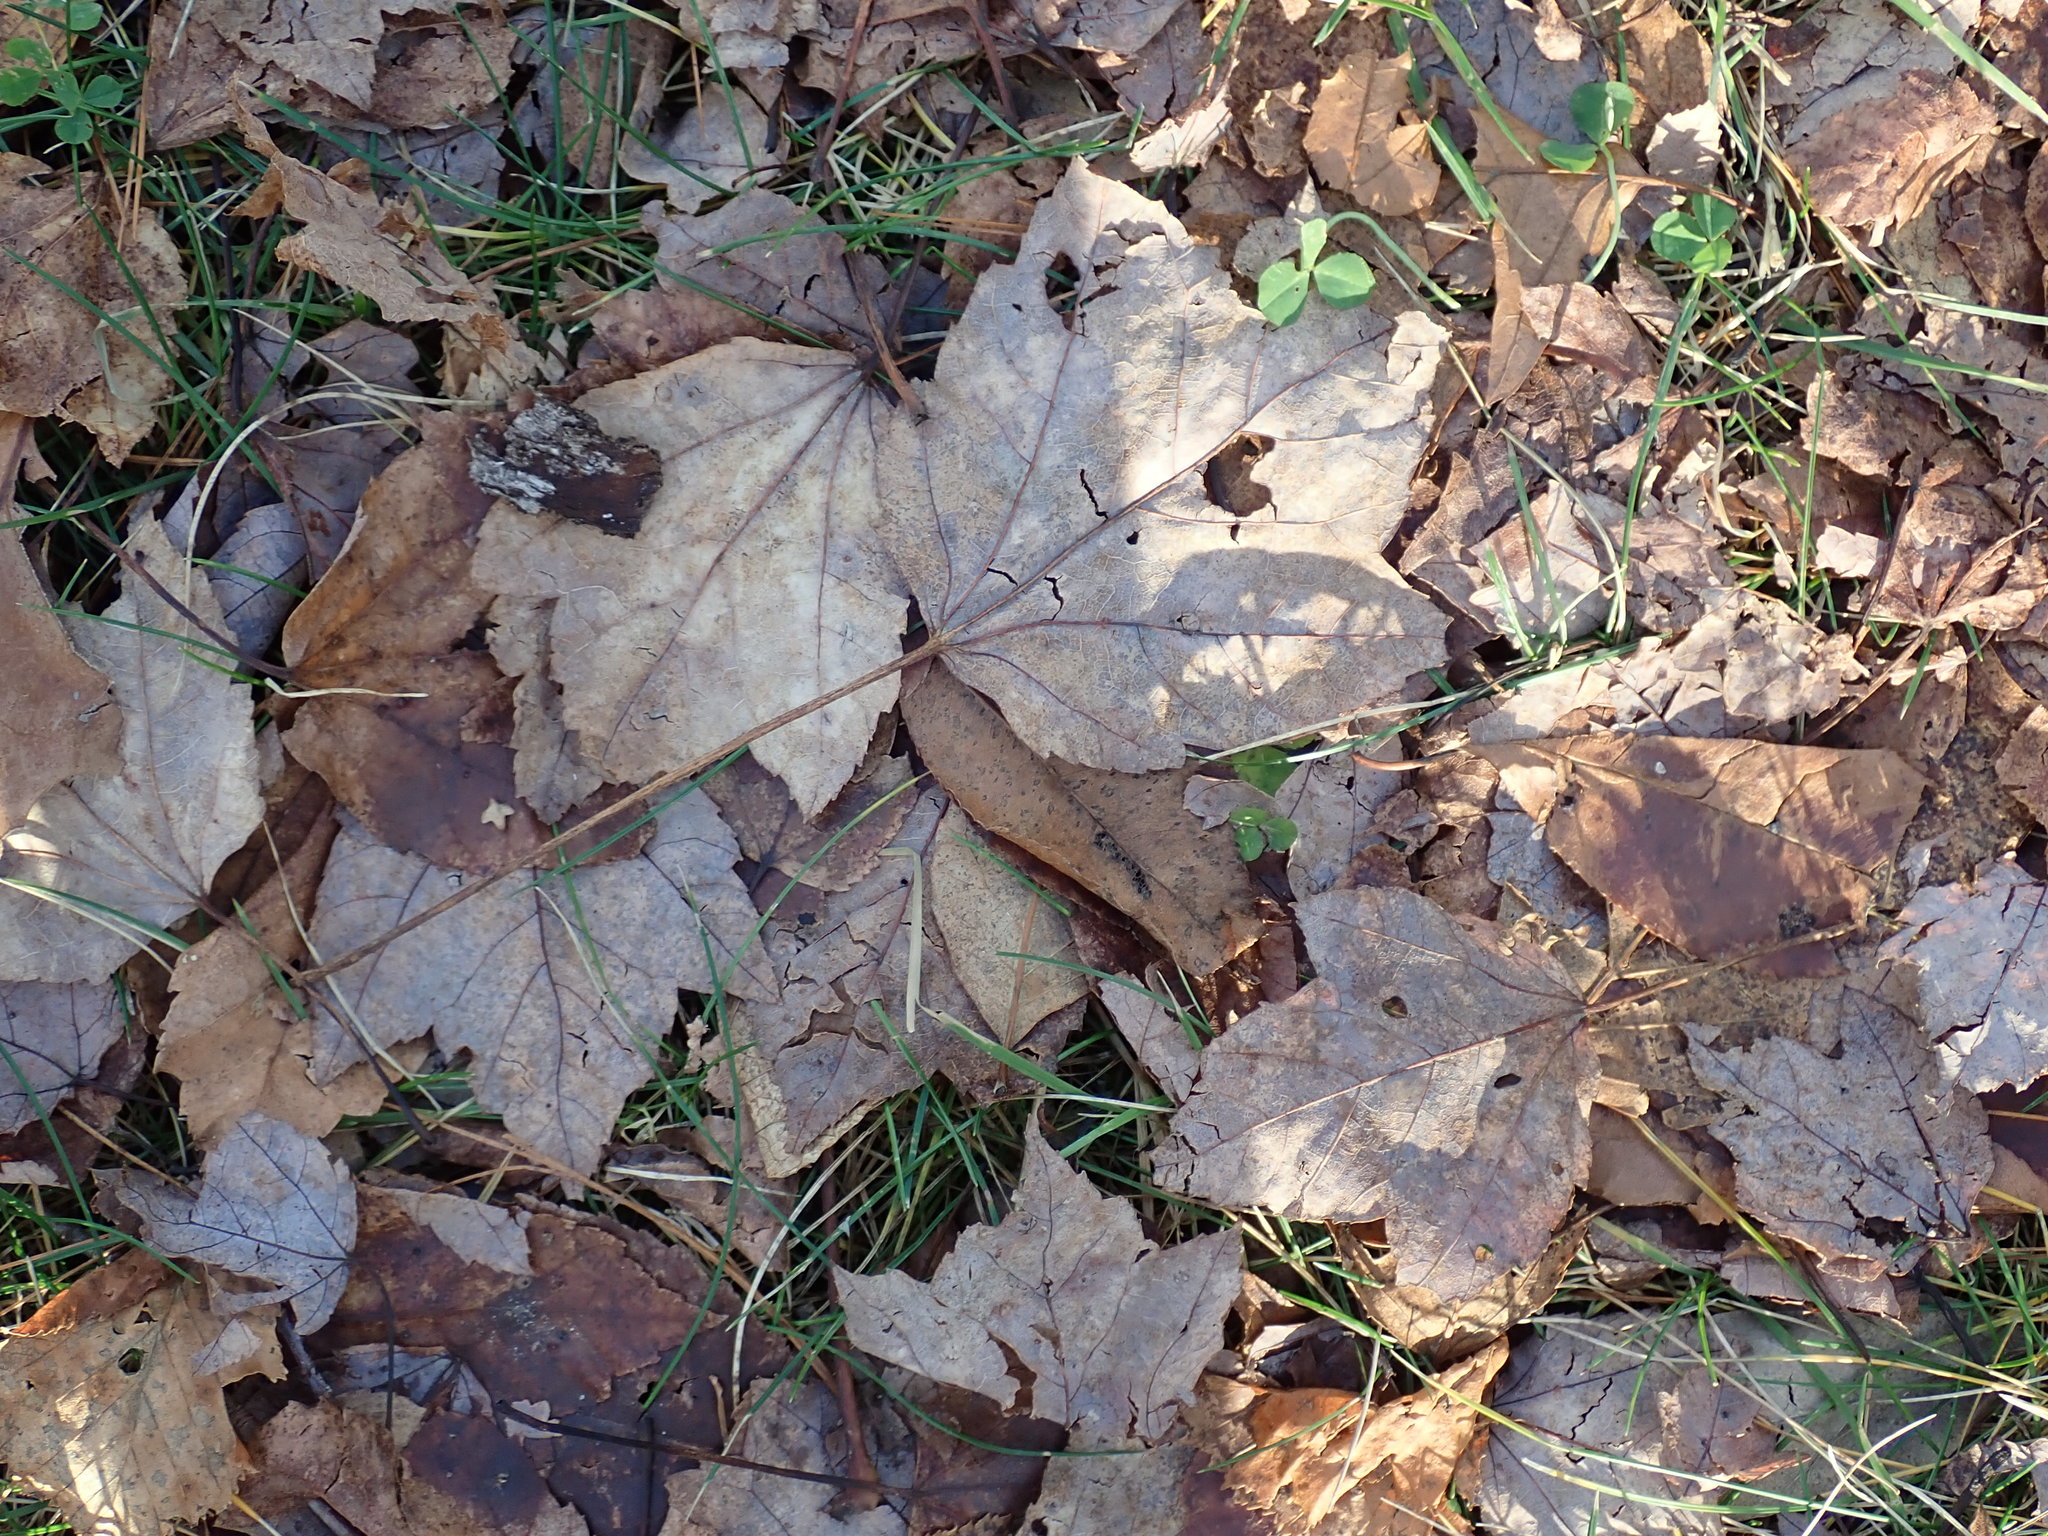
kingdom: Plantae
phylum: Tracheophyta
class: Magnoliopsida
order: Sapindales
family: Sapindaceae
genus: Acer
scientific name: Acer rubrum
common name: Red maple
